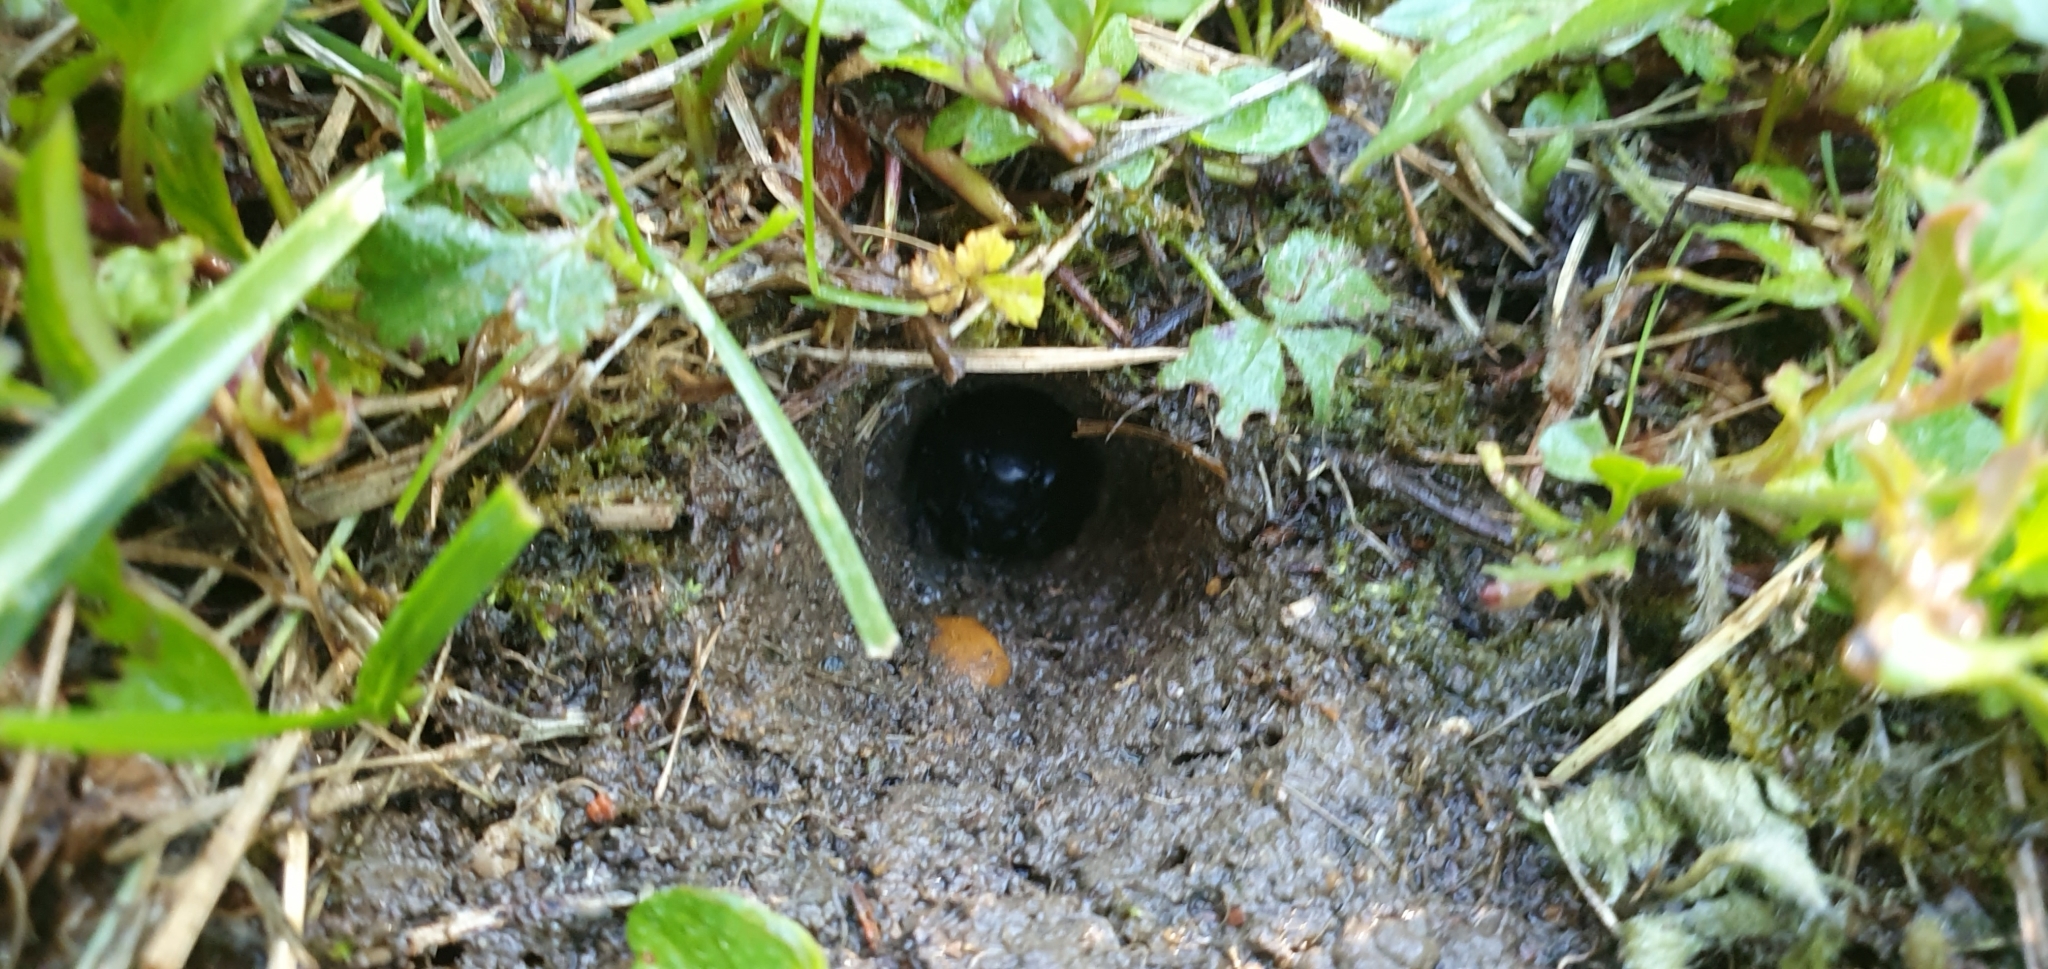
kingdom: Animalia
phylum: Arthropoda
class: Insecta
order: Orthoptera
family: Gryllidae
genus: Gryllus
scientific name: Gryllus campestris
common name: Field cricket
